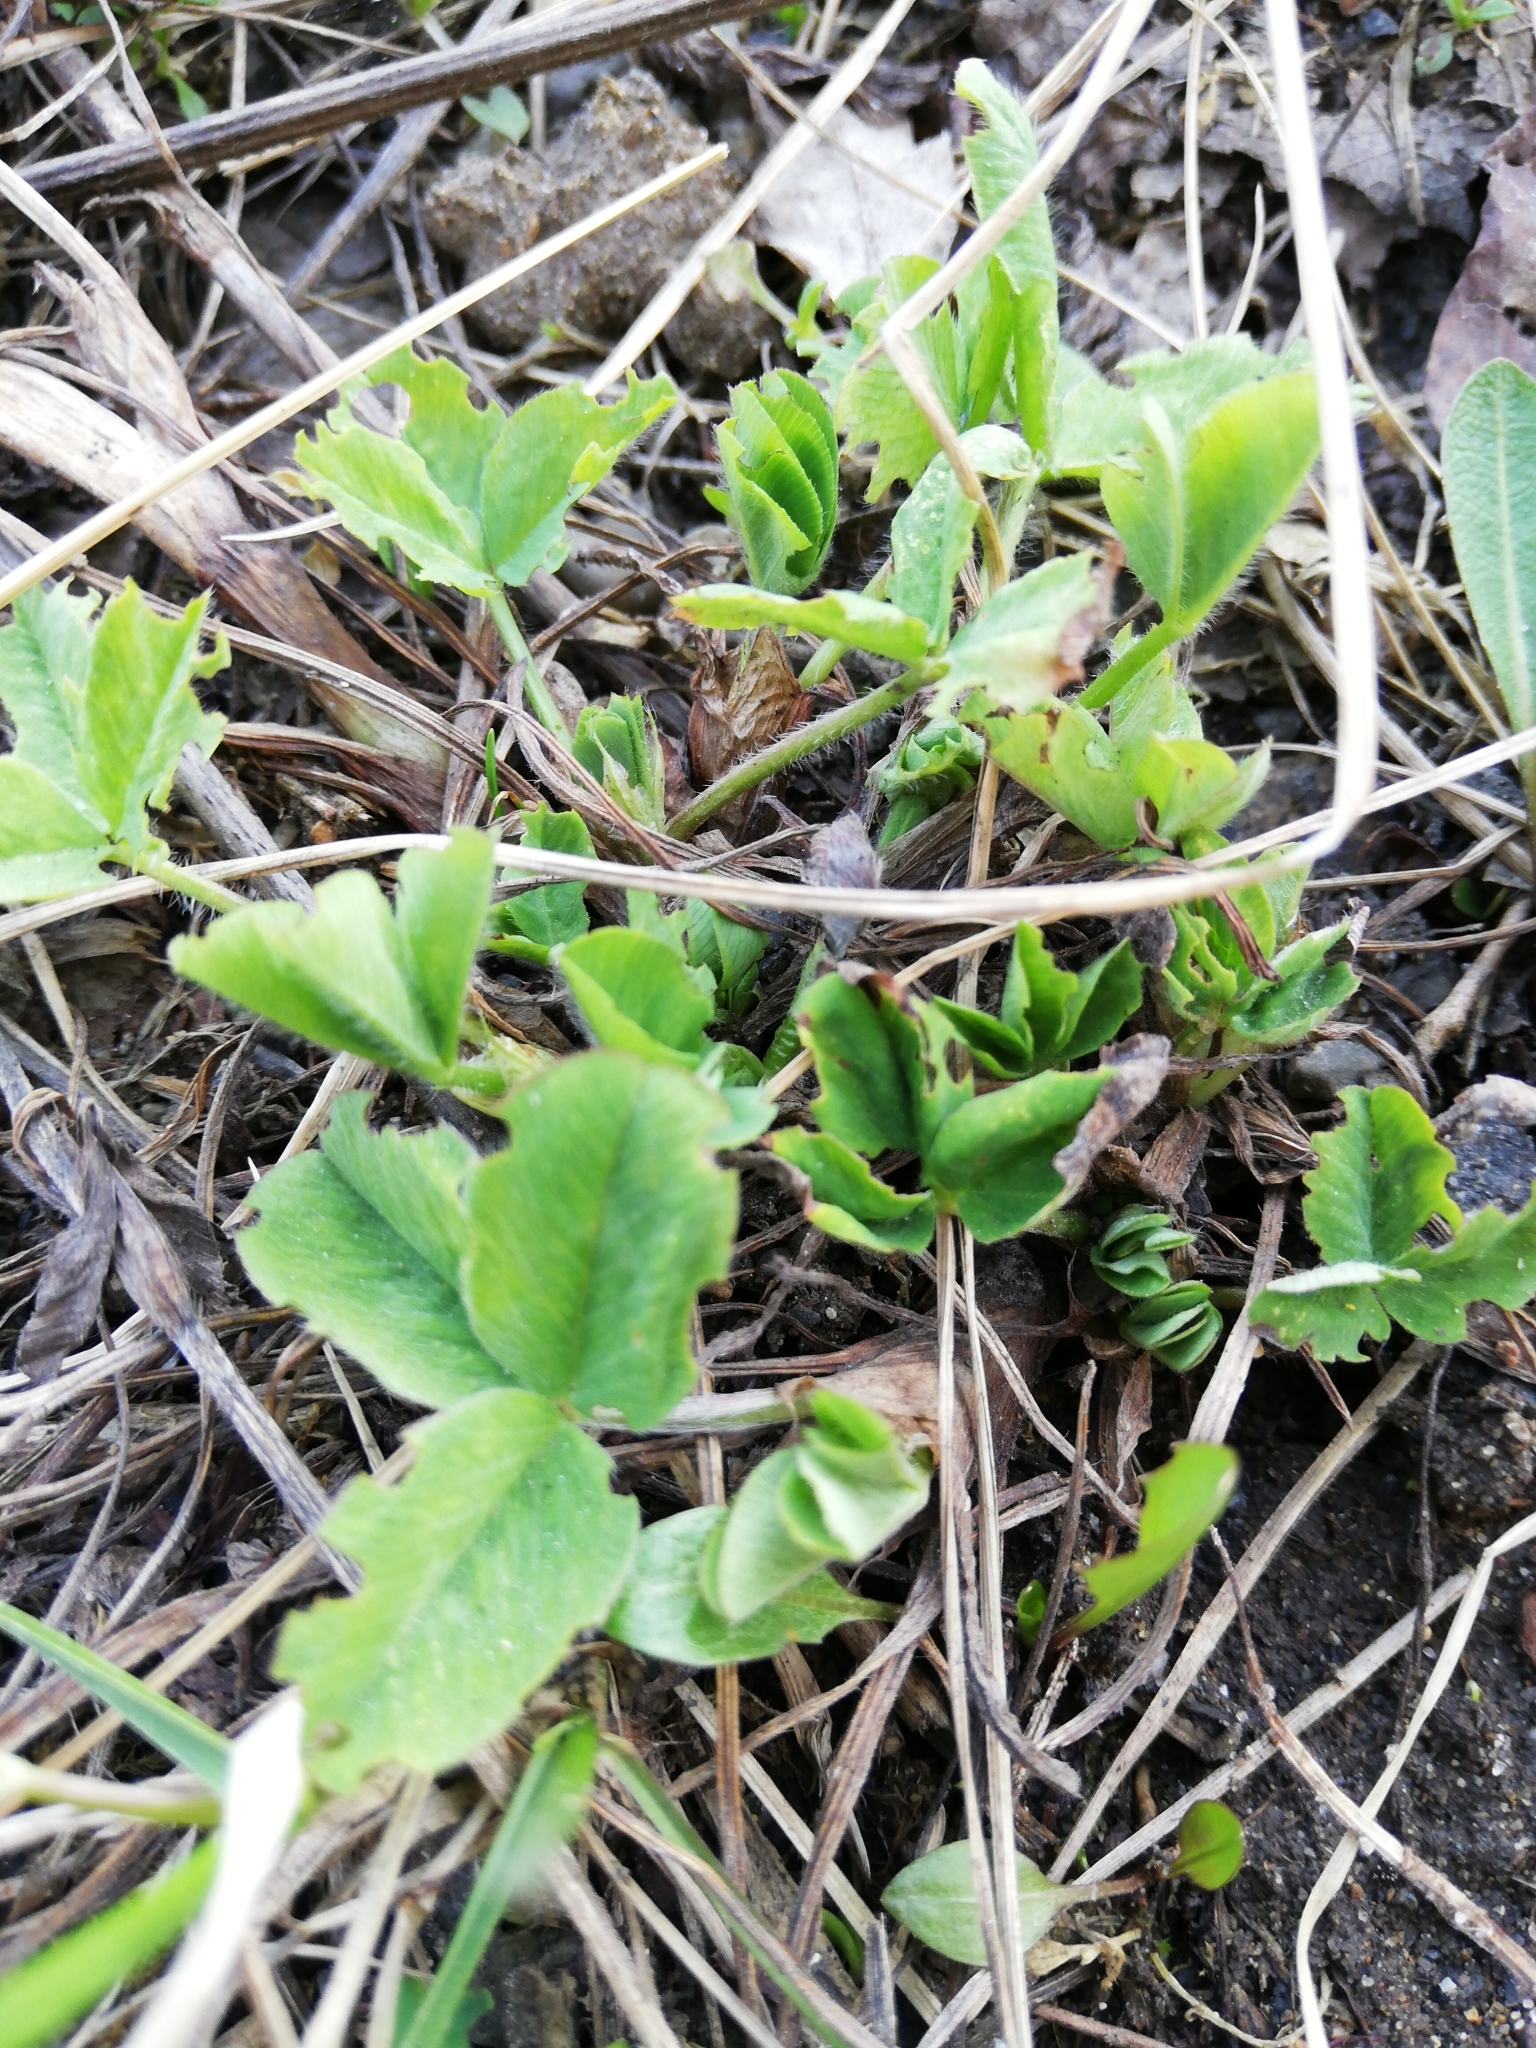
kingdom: Plantae
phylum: Tracheophyta
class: Magnoliopsida
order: Fabales
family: Fabaceae
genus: Trifolium
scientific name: Trifolium pratense
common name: Red clover
